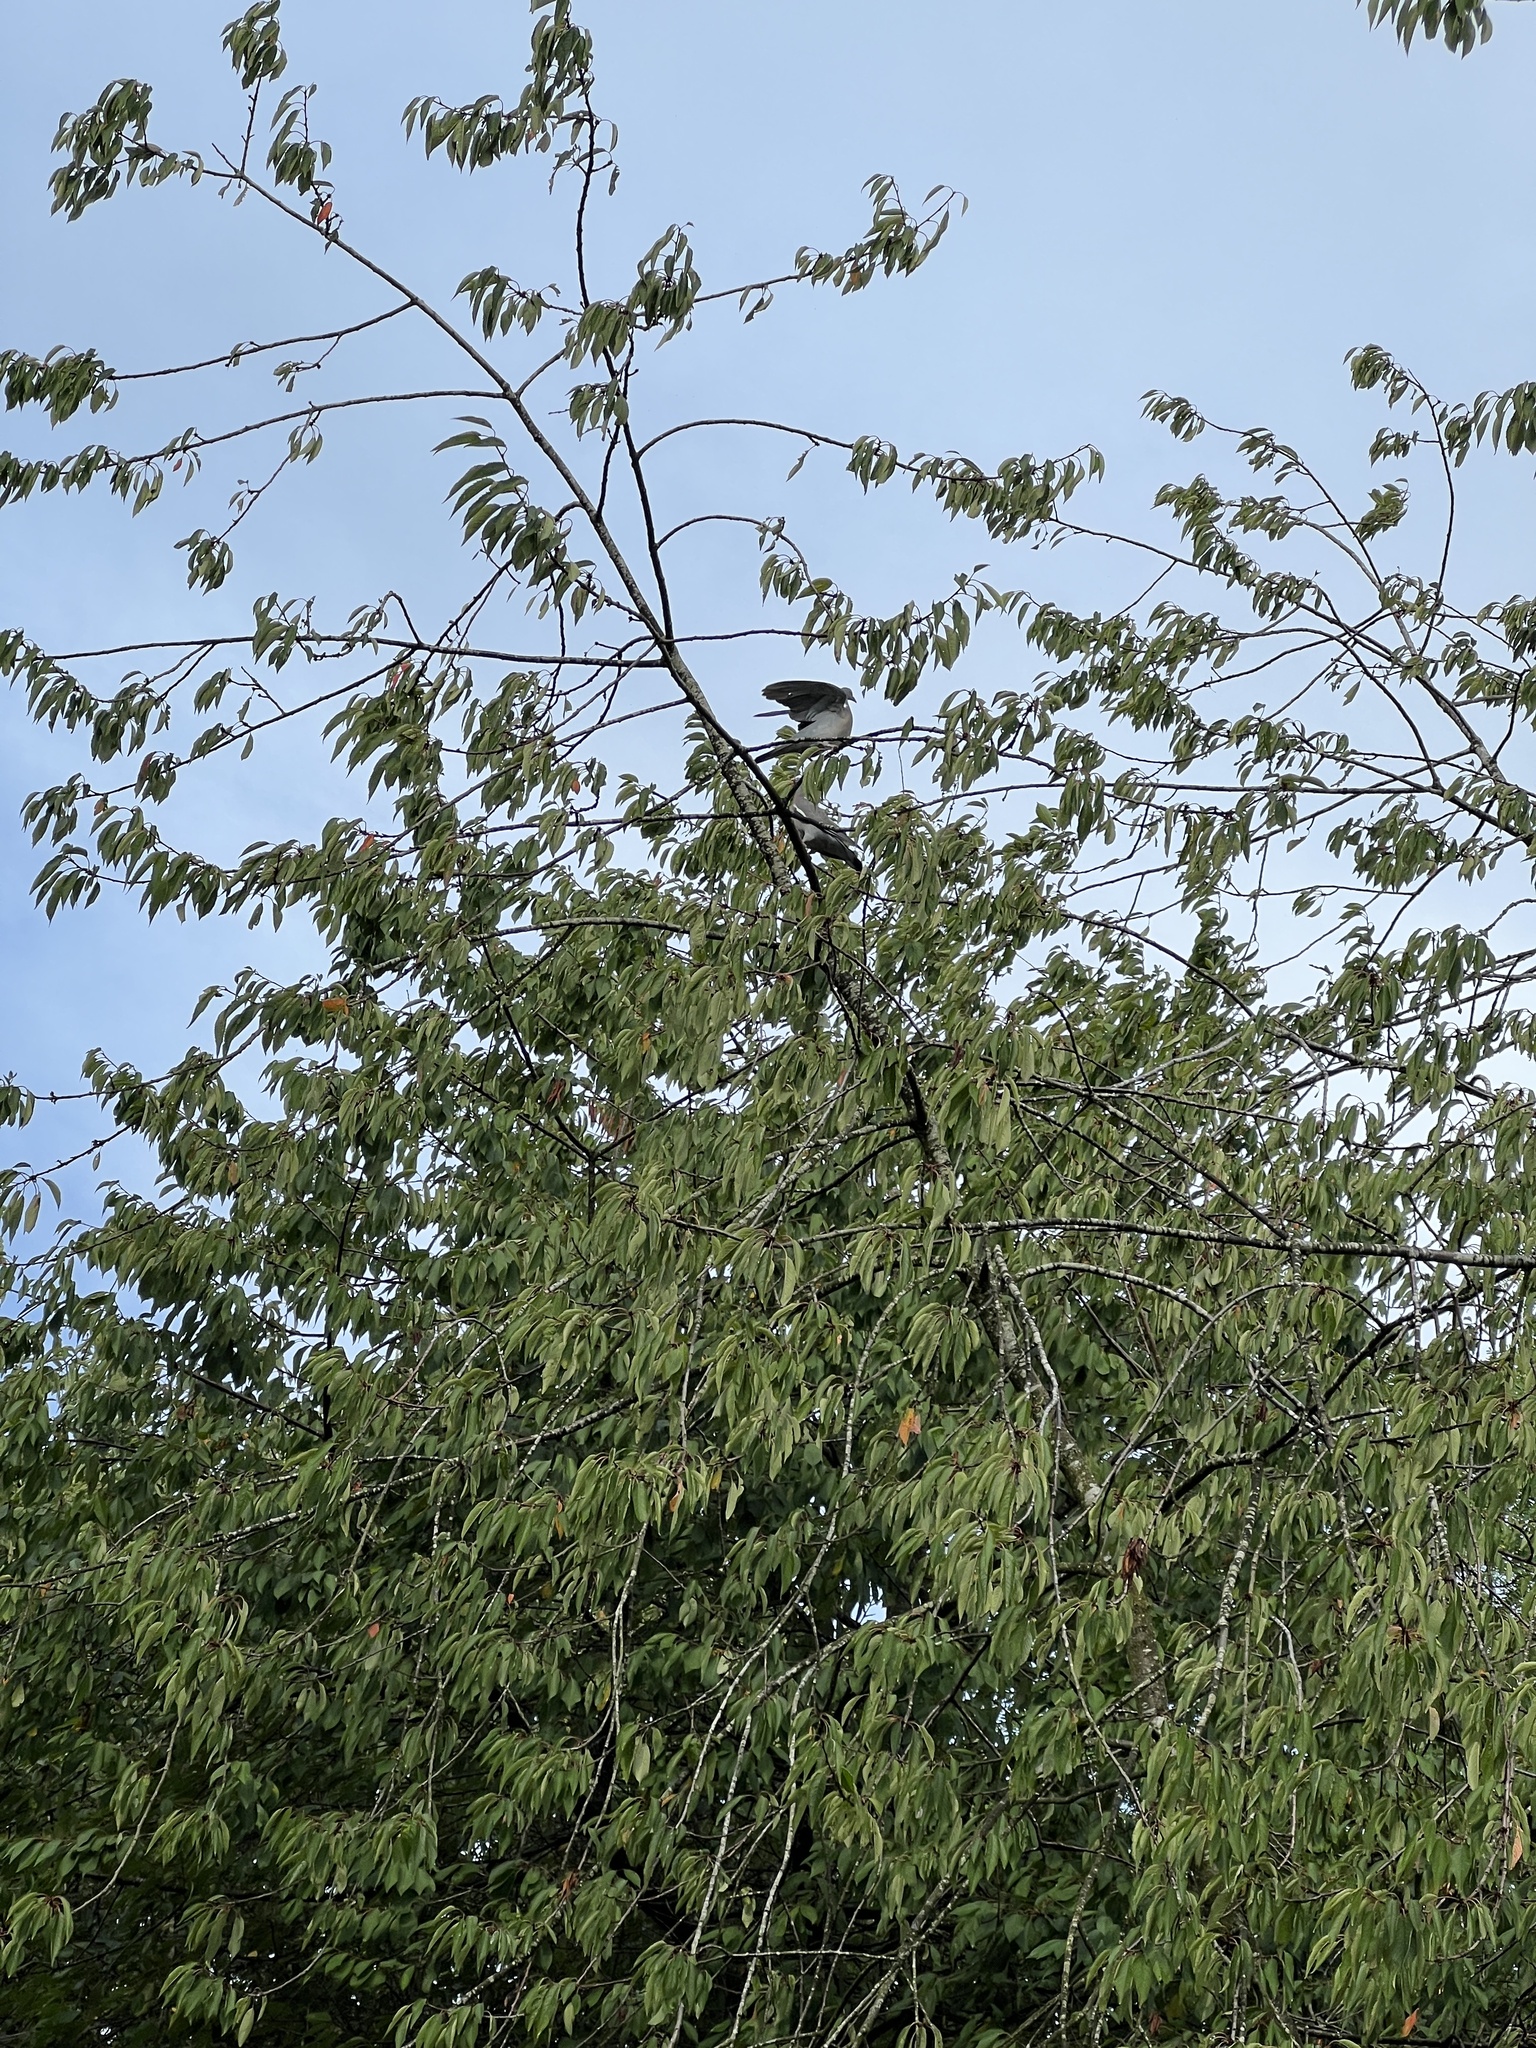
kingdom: Animalia
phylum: Chordata
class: Aves
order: Columbiformes
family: Columbidae
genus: Columba
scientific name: Columba palumbus
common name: Common wood pigeon
